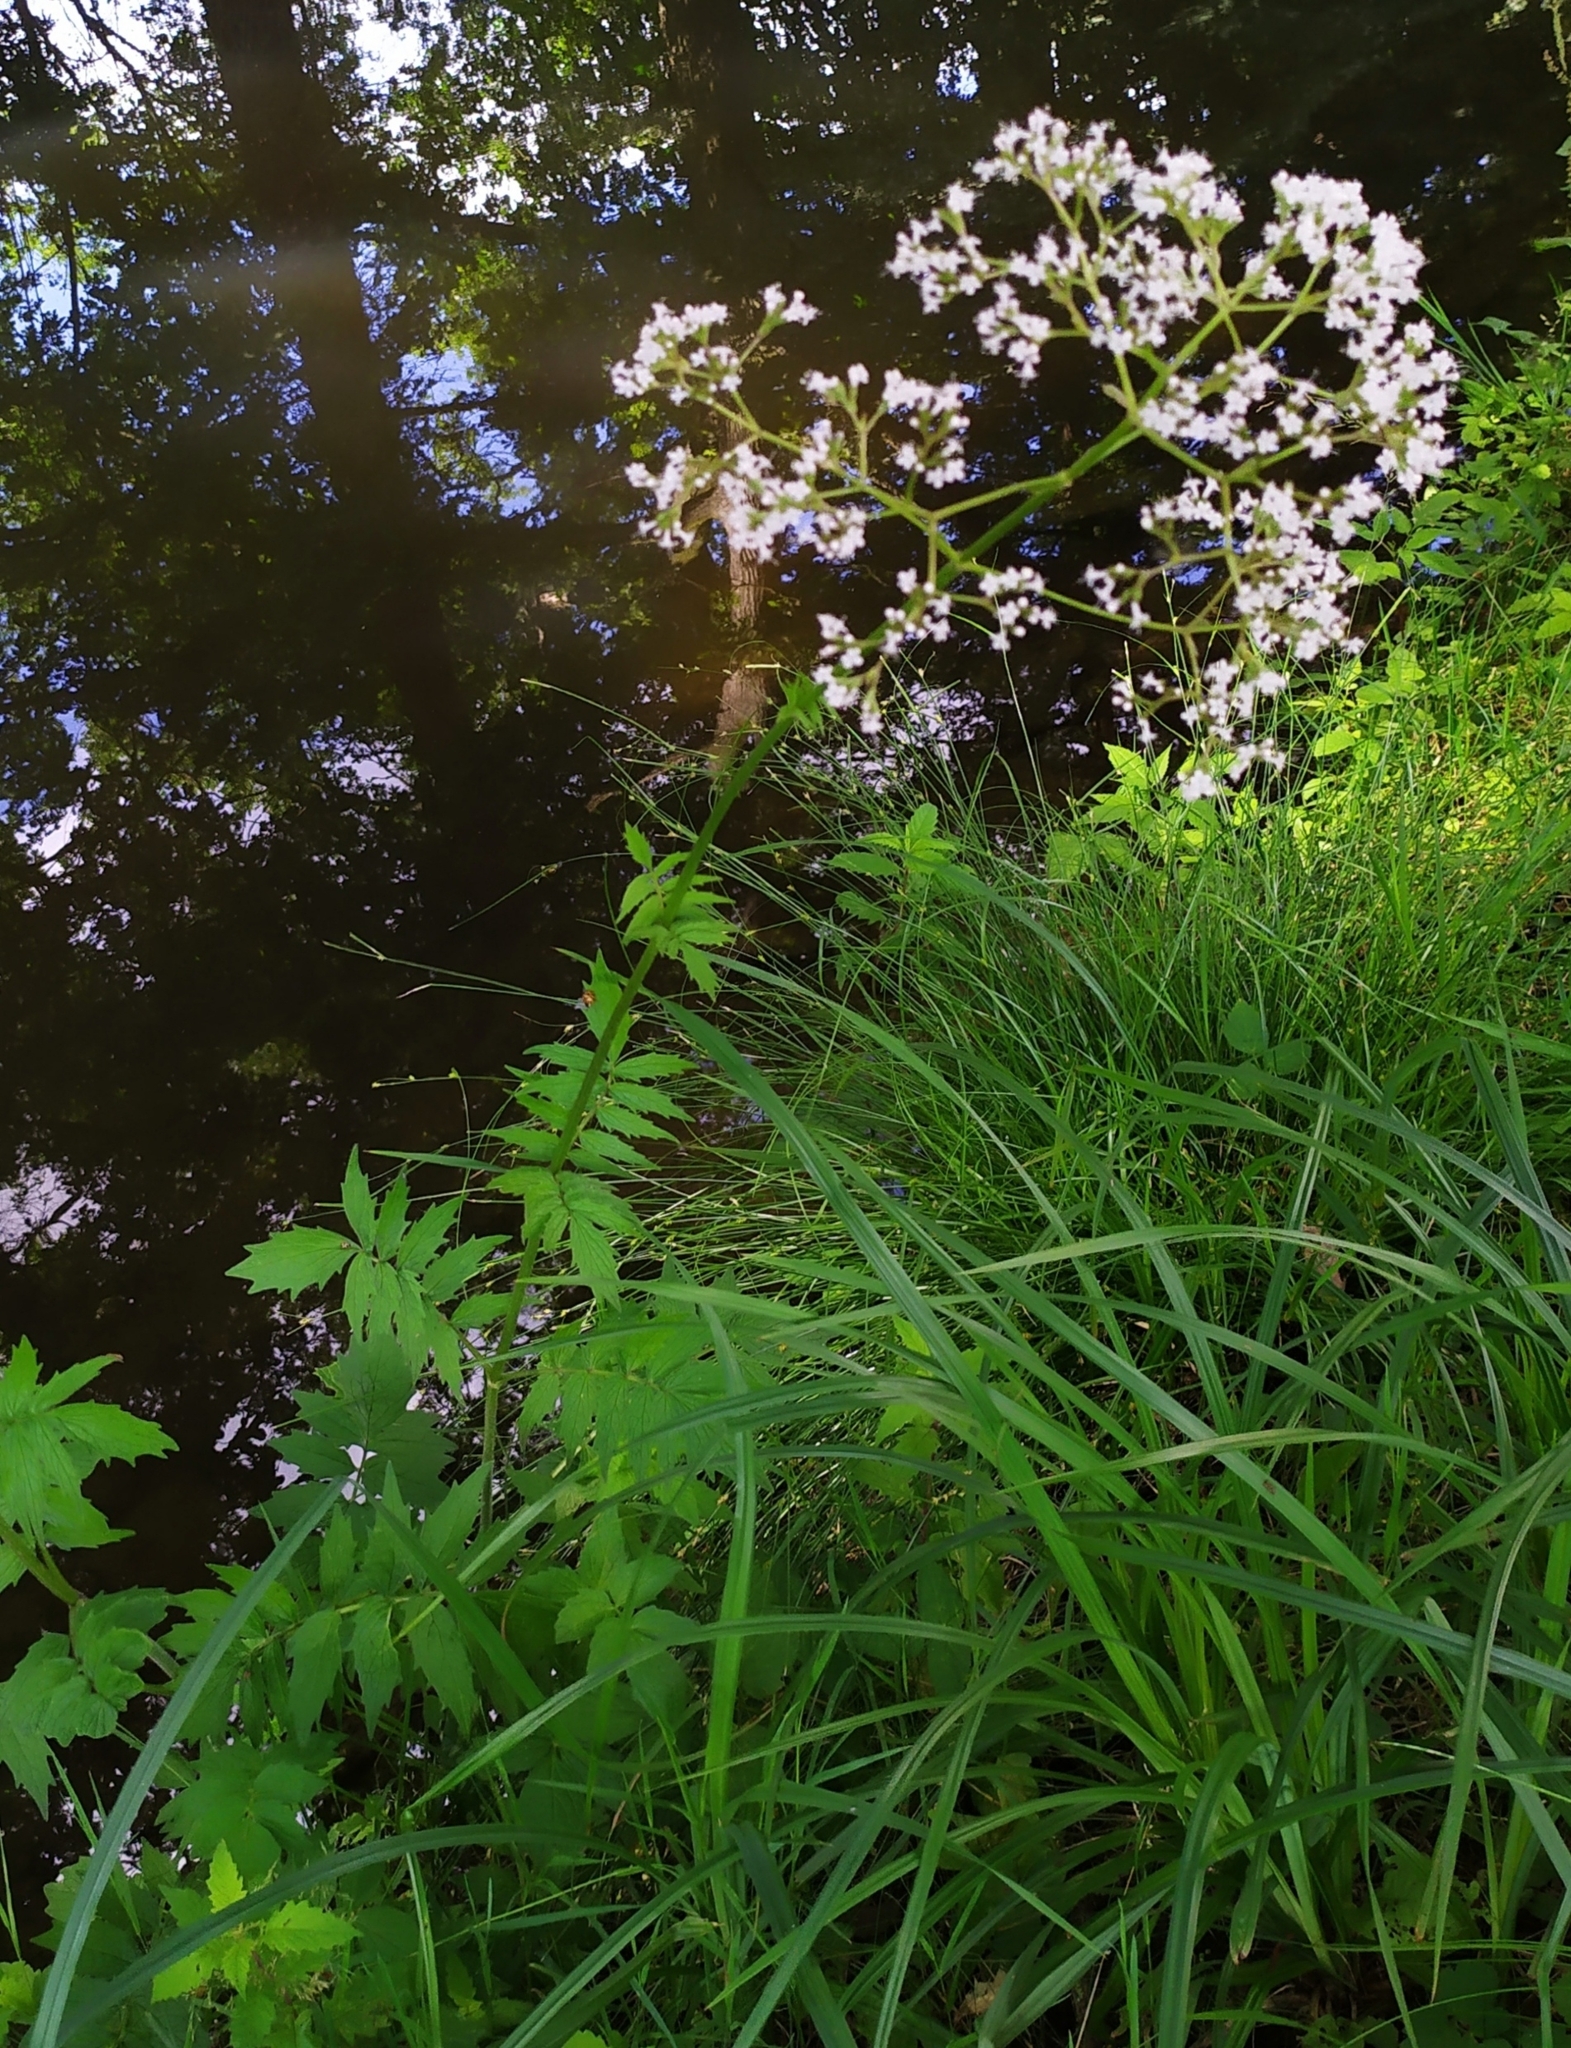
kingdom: Plantae
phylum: Tracheophyta
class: Magnoliopsida
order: Dipsacales
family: Caprifoliaceae
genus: Valeriana
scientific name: Valeriana officinalis
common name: Common valerian
